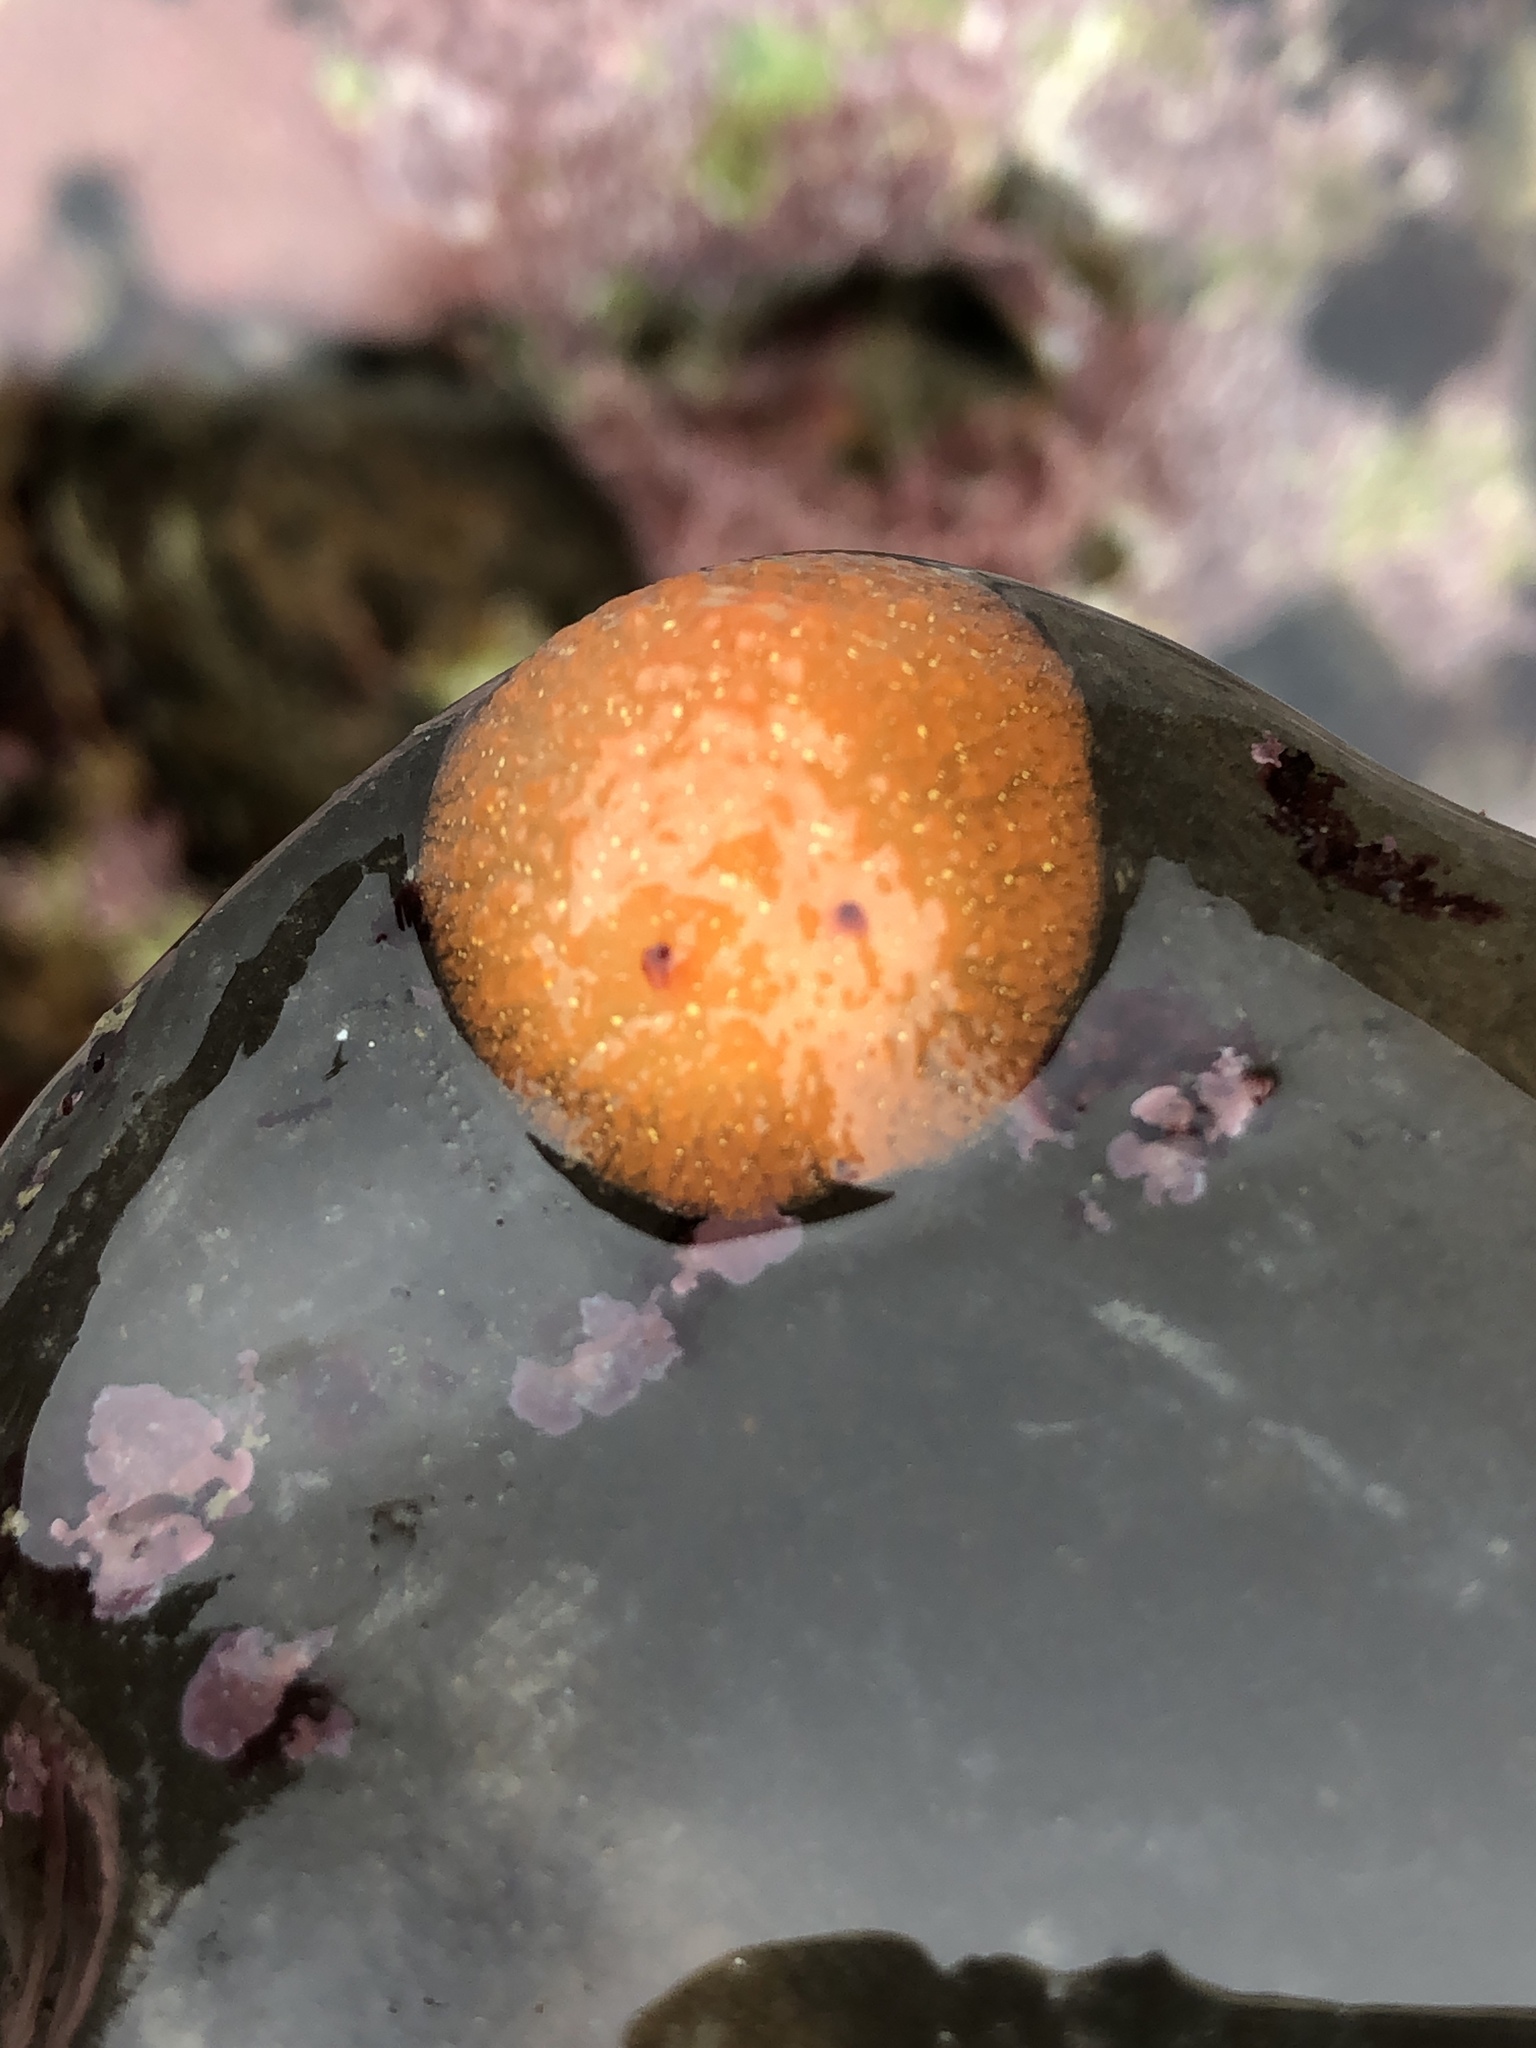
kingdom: Animalia
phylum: Mollusca
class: Gastropoda
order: Nudibranchia
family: Onchidorididae
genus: Acanthodoris
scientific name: Acanthodoris lutea
